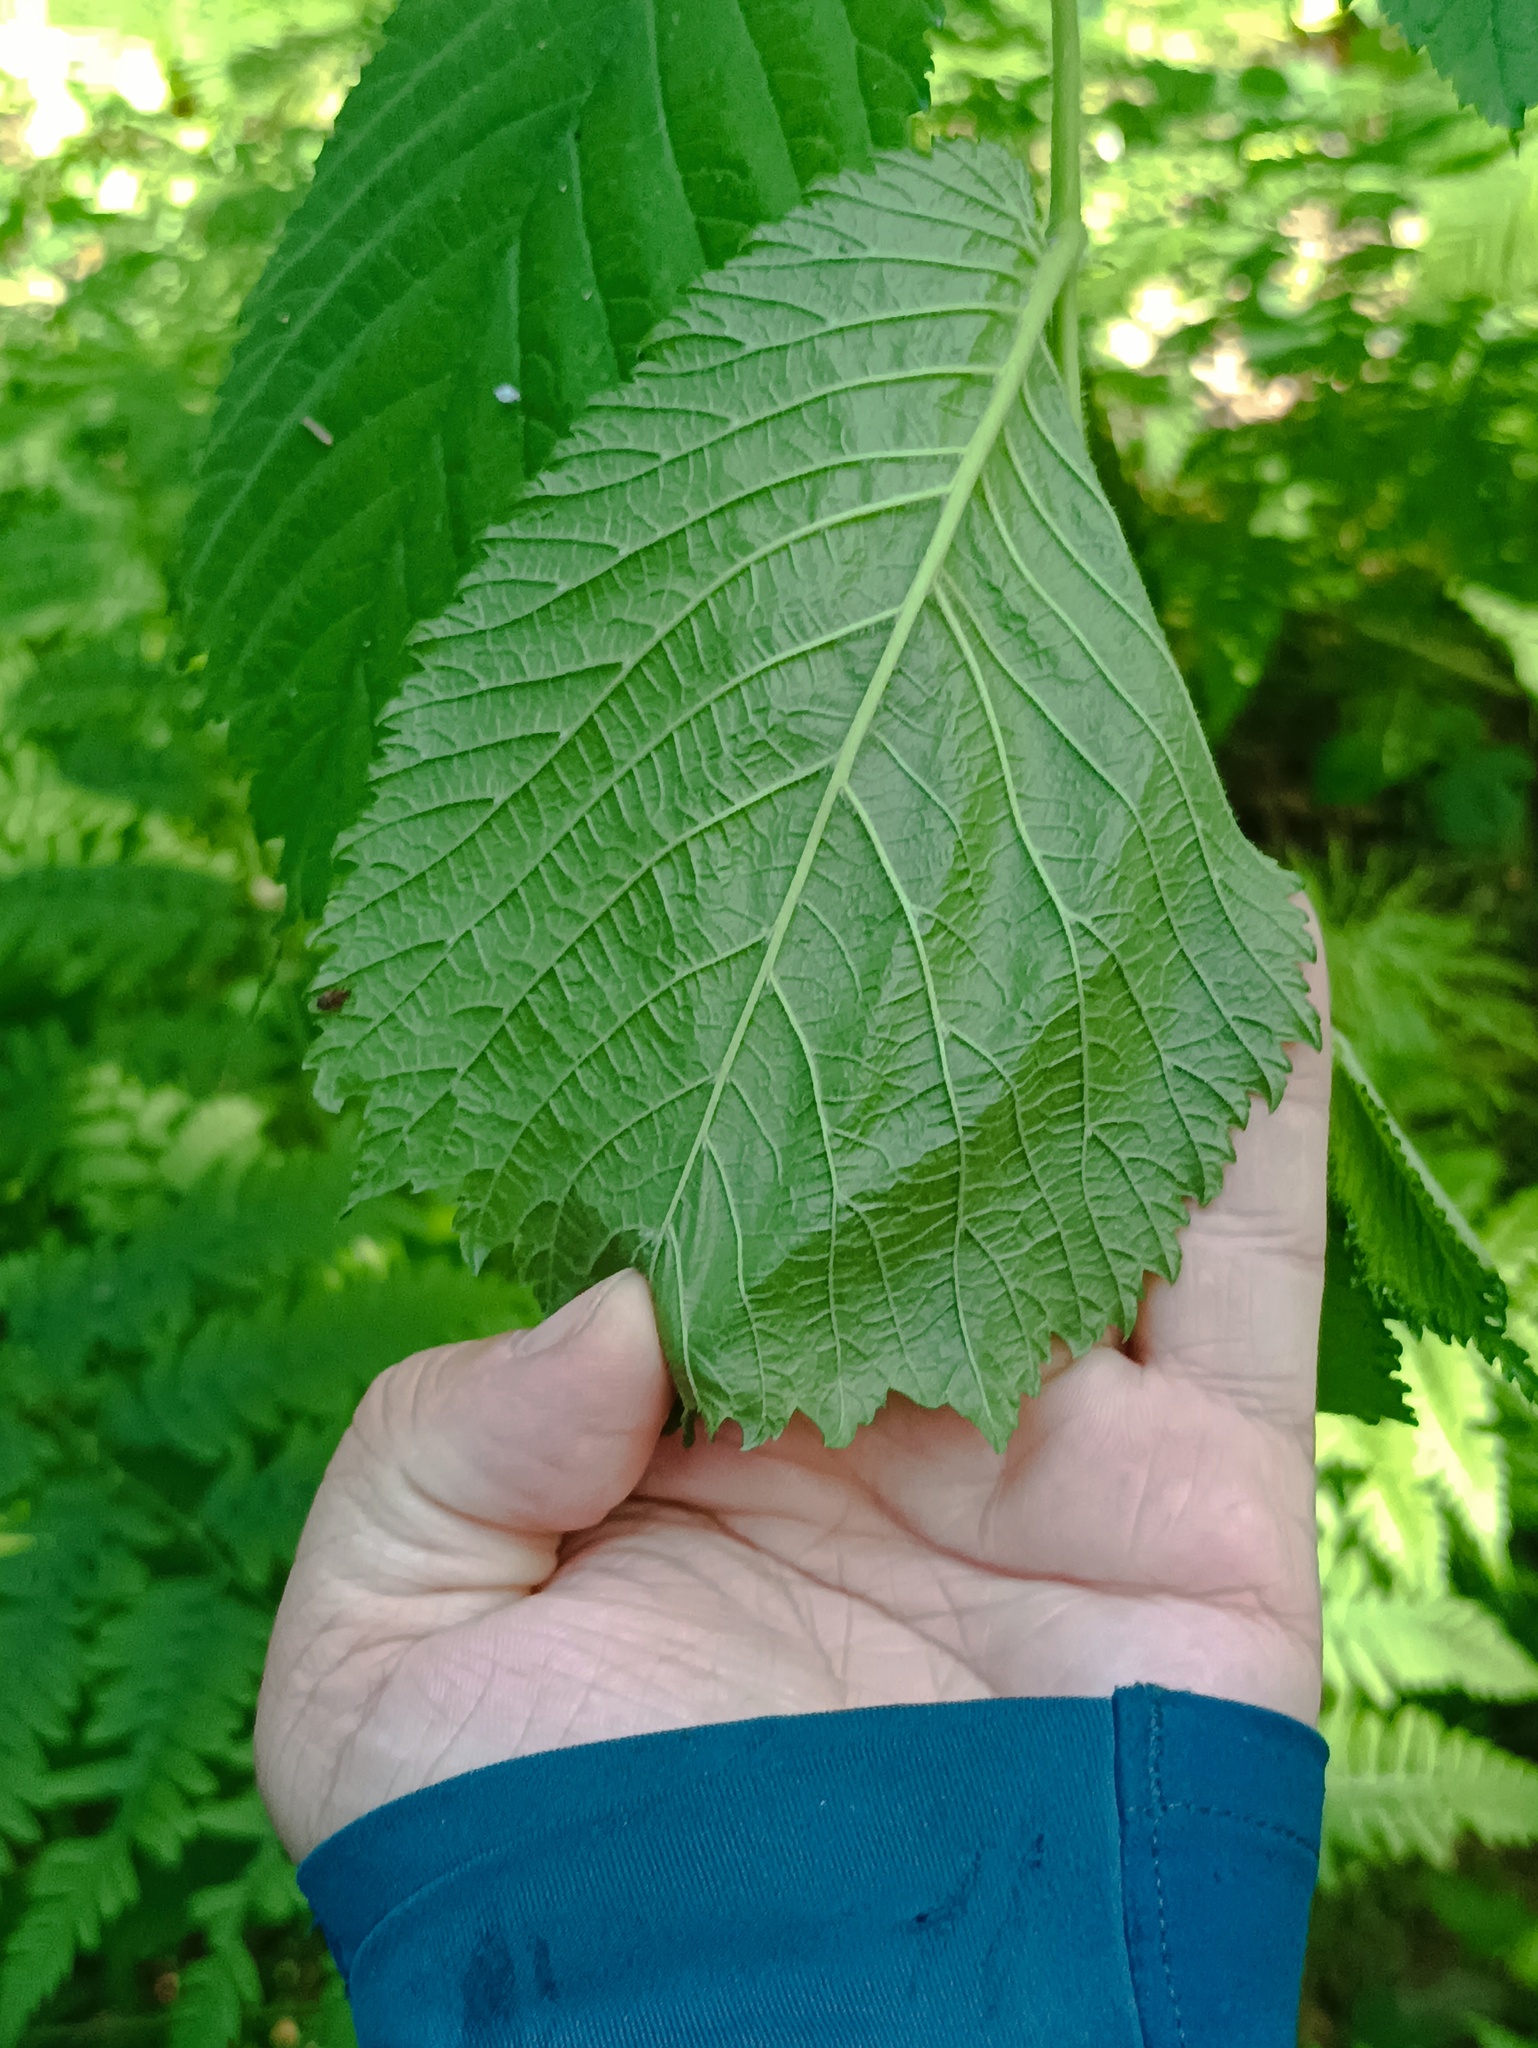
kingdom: Plantae
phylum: Tracheophyta
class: Magnoliopsida
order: Rosales
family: Ulmaceae
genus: Ulmus
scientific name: Ulmus glabra
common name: Wych elm
